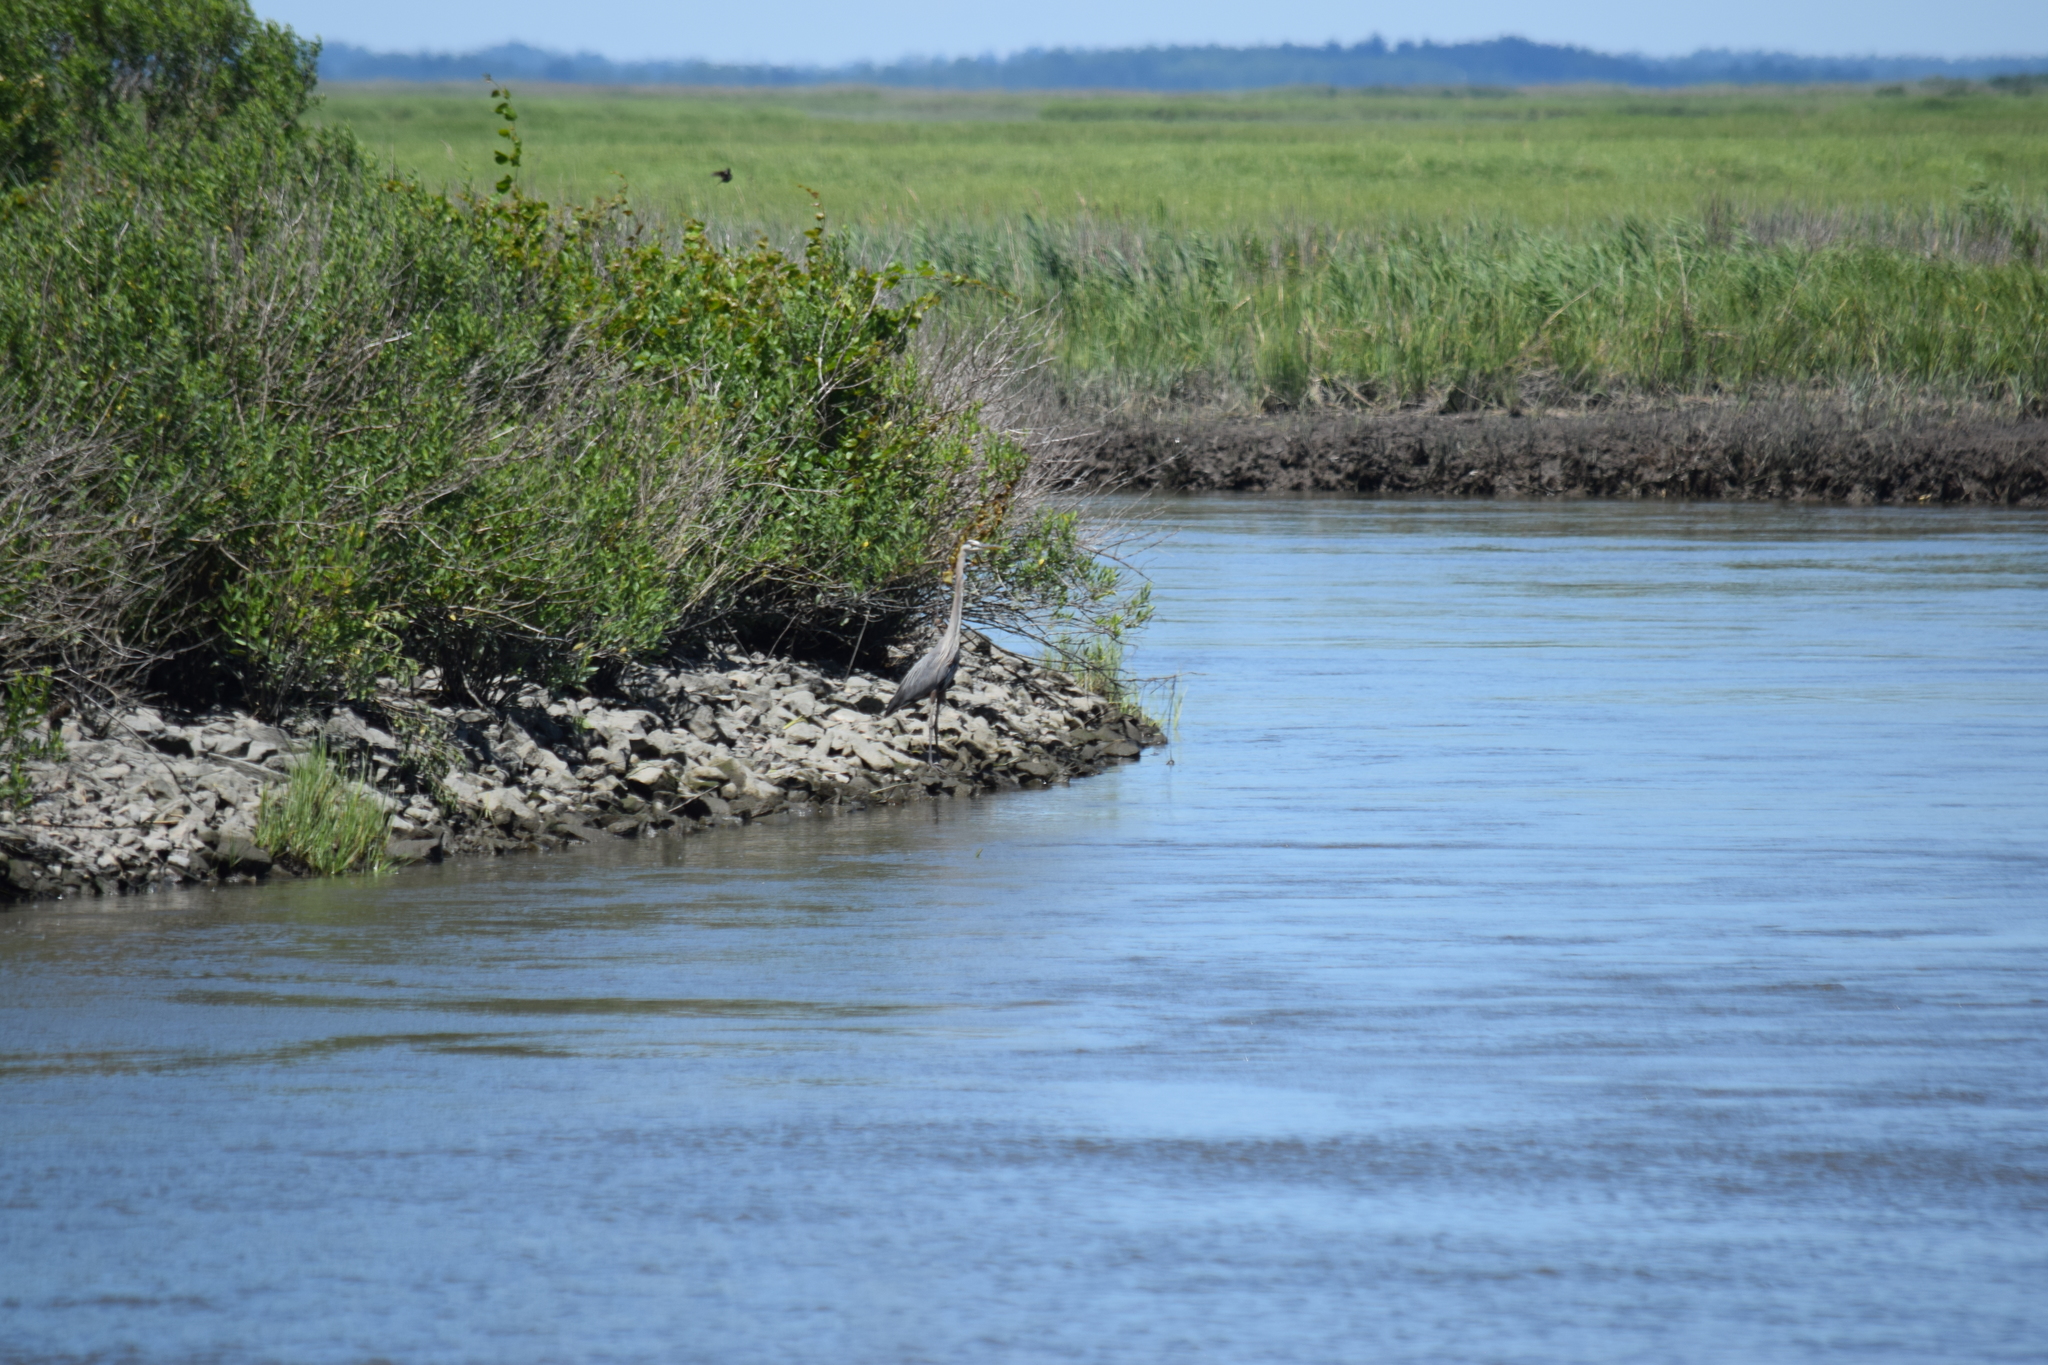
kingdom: Animalia
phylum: Chordata
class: Aves
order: Pelecaniformes
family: Ardeidae
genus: Ardea
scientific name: Ardea herodias
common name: Great blue heron
